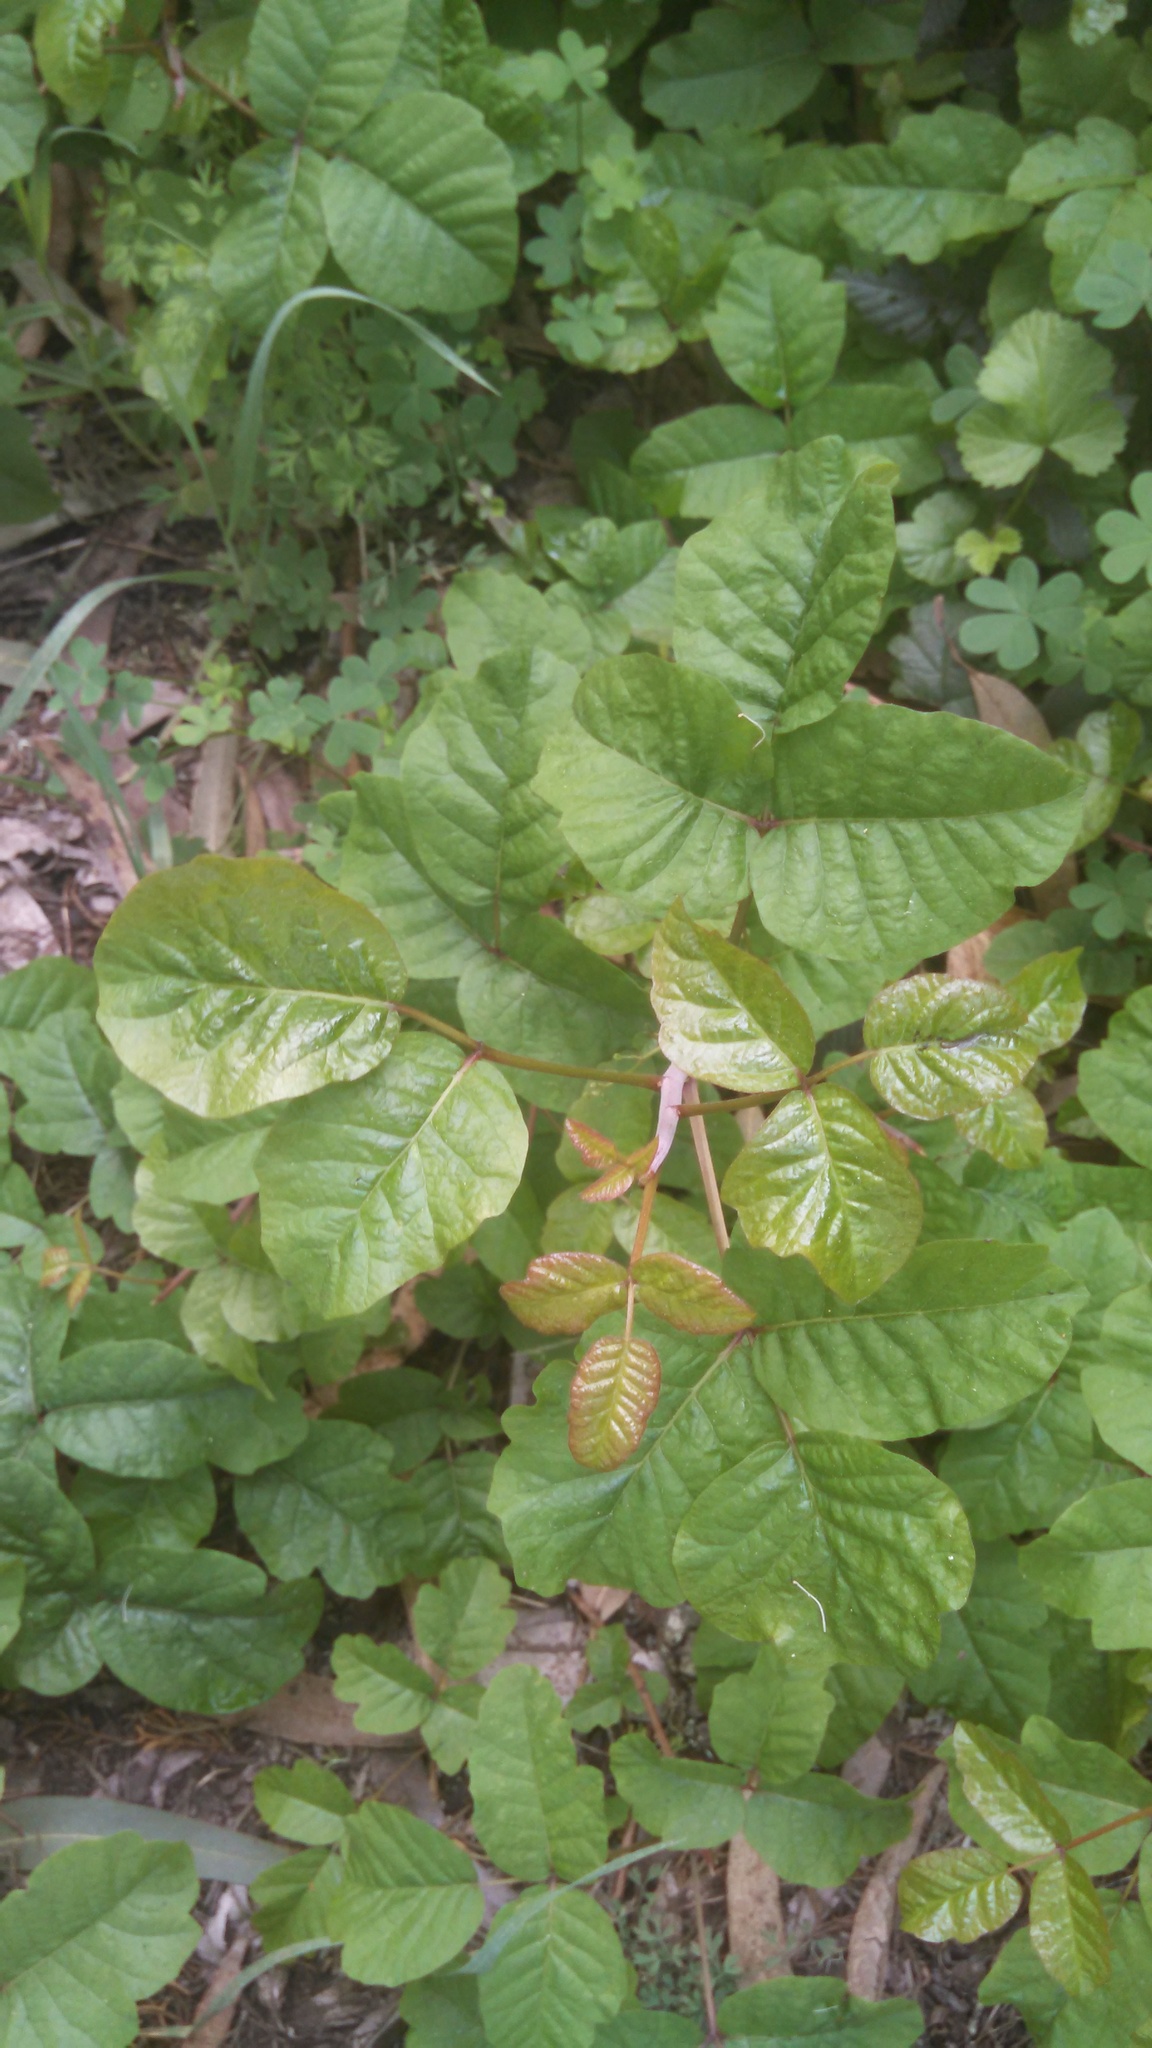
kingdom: Plantae
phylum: Tracheophyta
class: Magnoliopsida
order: Sapindales
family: Anacardiaceae
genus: Toxicodendron
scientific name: Toxicodendron diversilobum
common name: Pacific poison-oak
